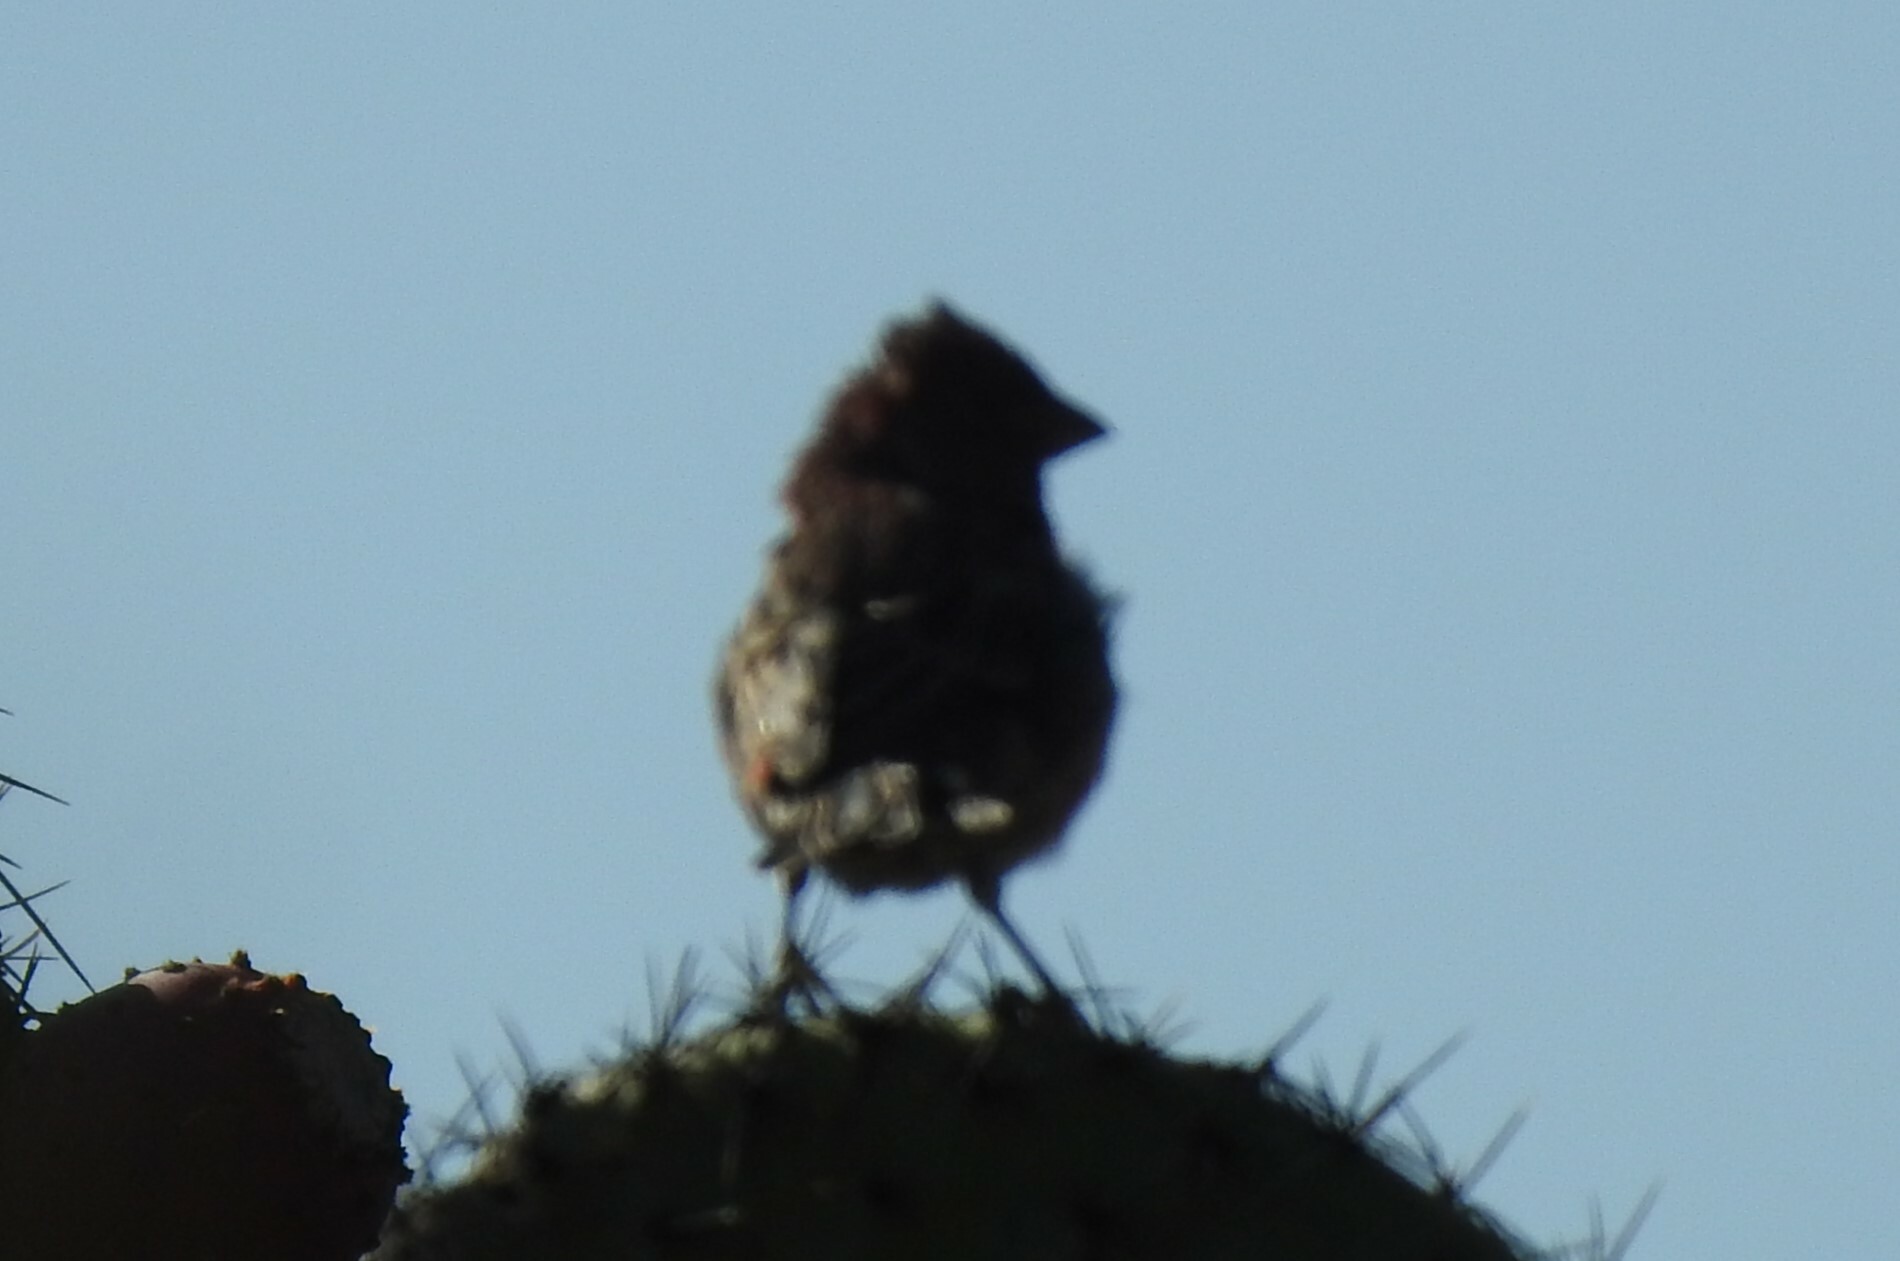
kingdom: Animalia
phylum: Chordata
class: Aves
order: Passeriformes
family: Fringillidae
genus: Haemorhous
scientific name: Haemorhous mexicanus
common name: House finch
